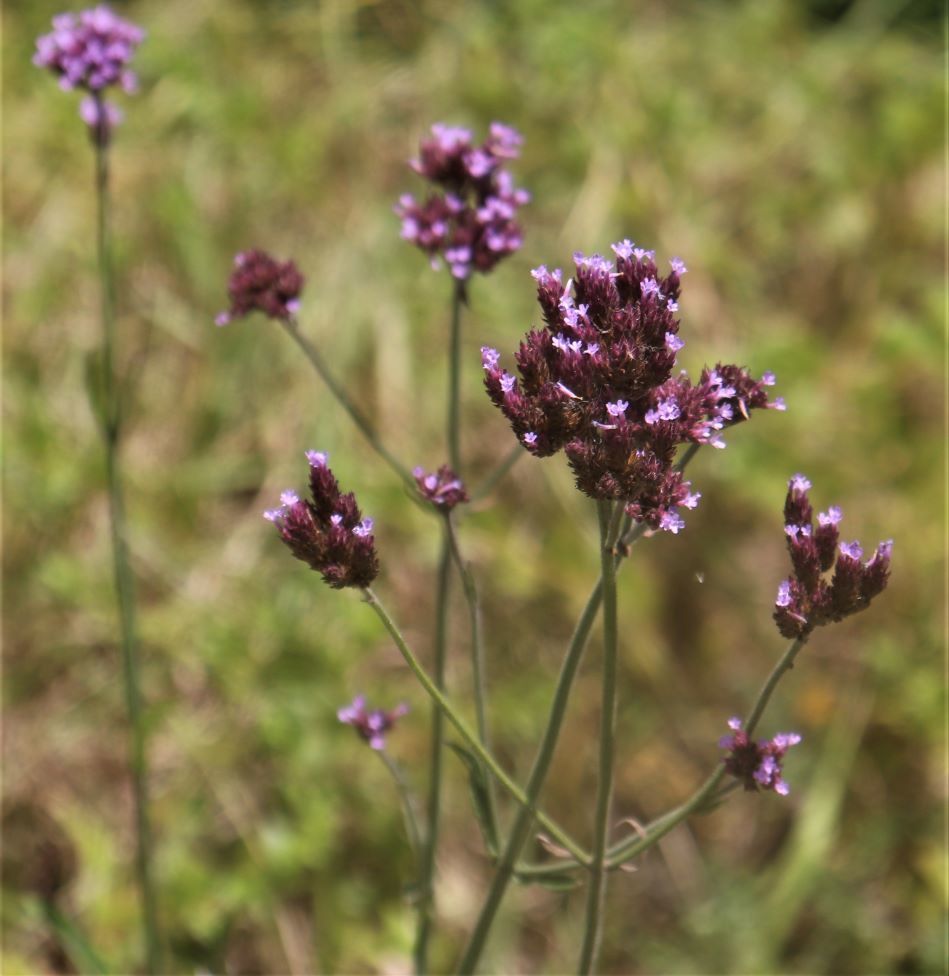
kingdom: Plantae
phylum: Tracheophyta
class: Magnoliopsida
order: Lamiales
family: Verbenaceae
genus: Verbena
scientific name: Verbena bonariensis
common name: Purpletop vervain
